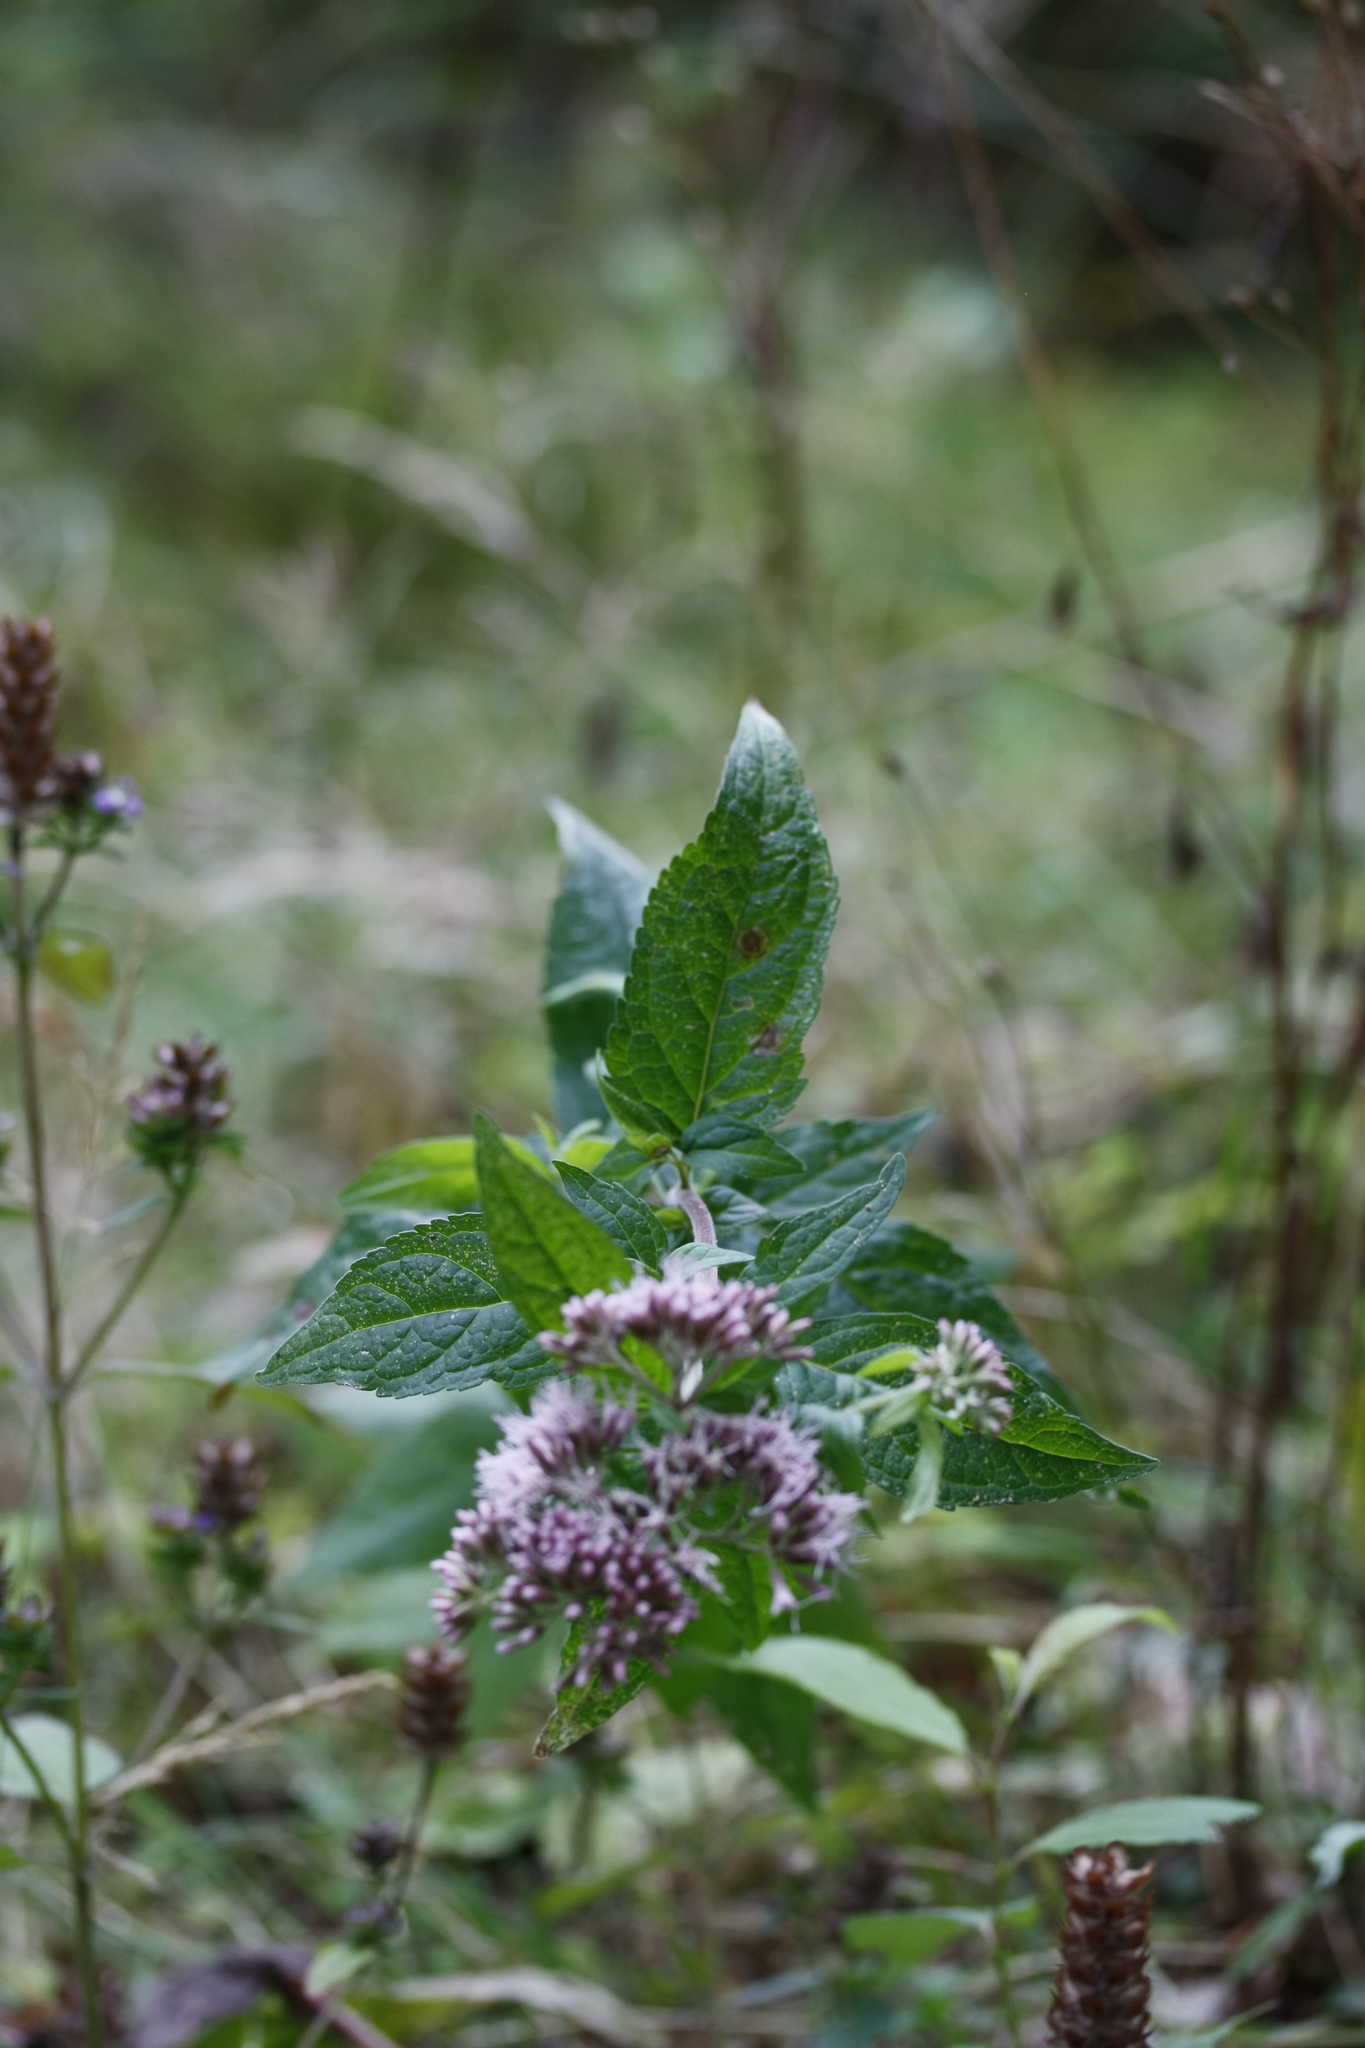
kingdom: Plantae
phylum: Tracheophyta
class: Magnoliopsida
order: Asterales
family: Asteraceae
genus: Eupatorium
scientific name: Eupatorium cannabinum
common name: Hemp-agrimony
